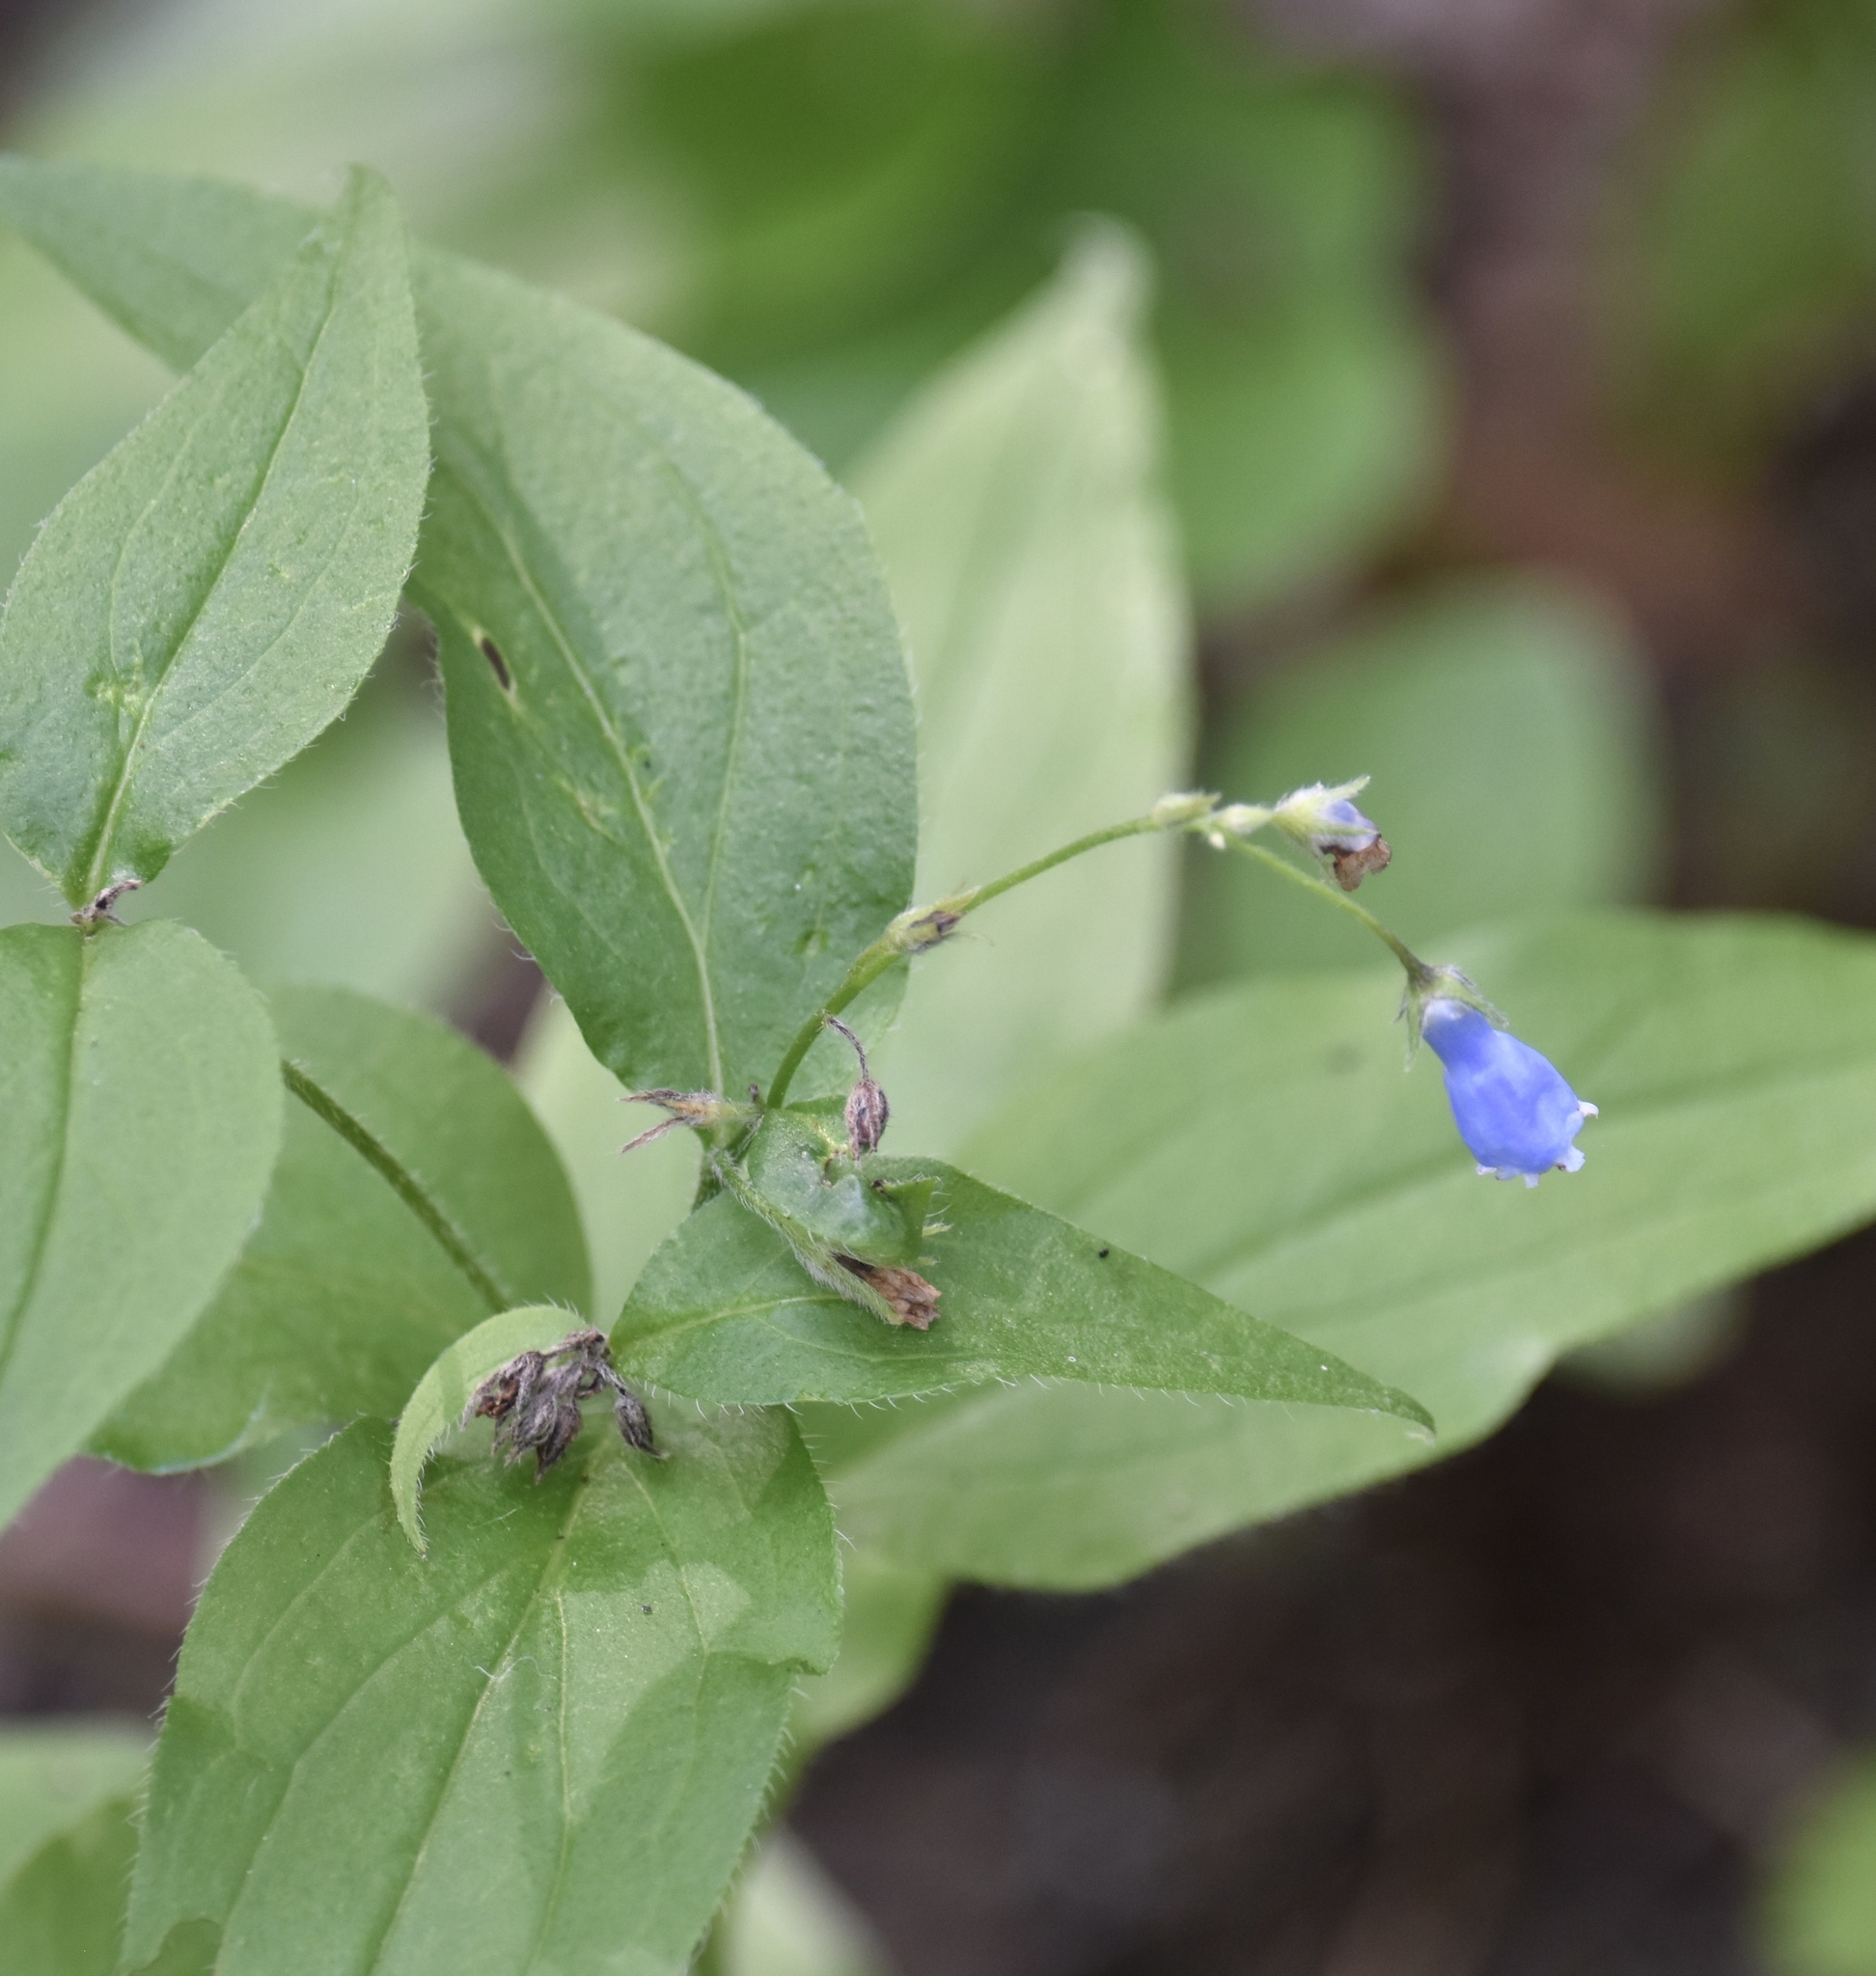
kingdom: Plantae
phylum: Tracheophyta
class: Magnoliopsida
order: Boraginales
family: Boraginaceae
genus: Mertensia
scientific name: Mertensia paniculata
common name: Panicled bluebells
